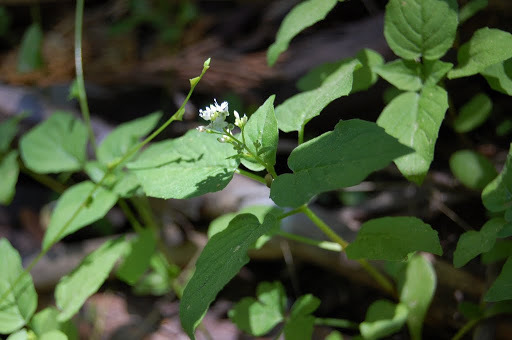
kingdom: Plantae
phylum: Tracheophyta
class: Magnoliopsida
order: Myrtales
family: Onagraceae
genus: Circaea
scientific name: Circaea alpina
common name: Alpine enchanter's-nightshade
